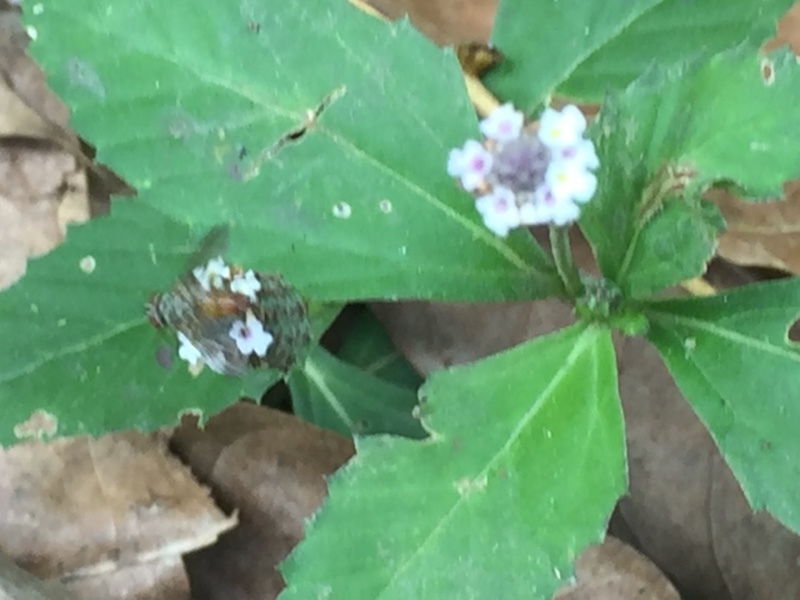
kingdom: Plantae
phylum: Tracheophyta
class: Magnoliopsida
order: Lamiales
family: Verbenaceae
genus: Phyla
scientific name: Phyla nodiflora
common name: Frogfruit
